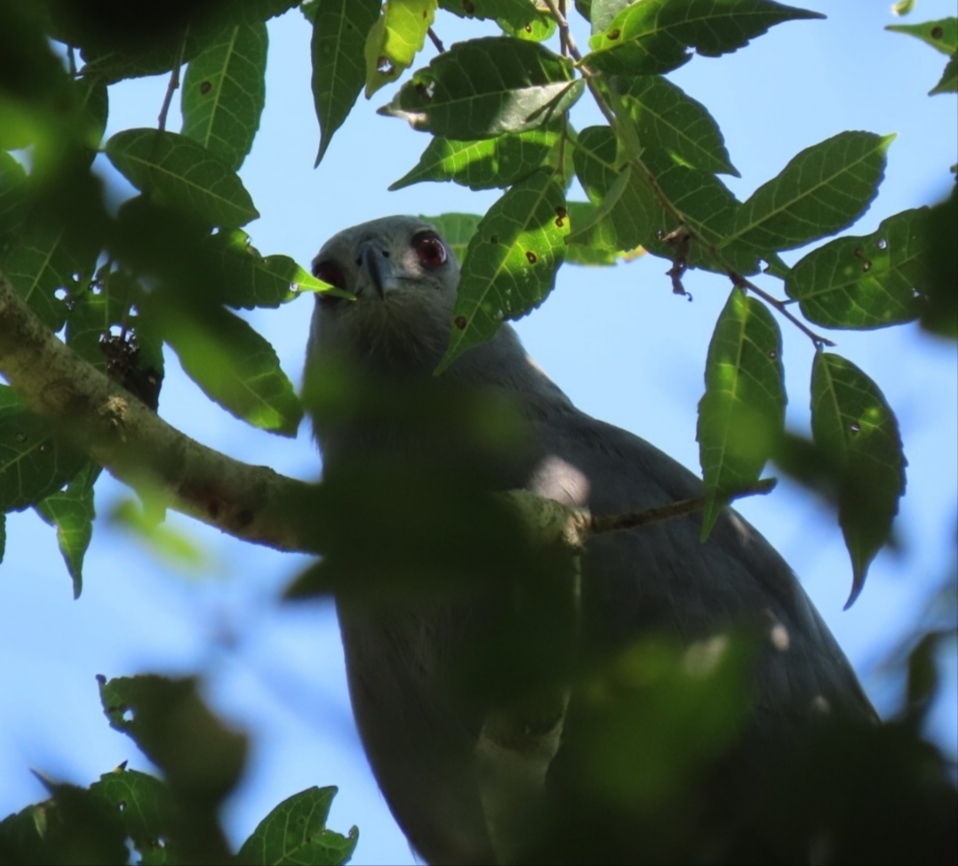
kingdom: Animalia
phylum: Chordata
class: Aves
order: Accipitriformes
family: Accipitridae
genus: Geranospiza
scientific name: Geranospiza caerulescens
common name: Crane hawk
